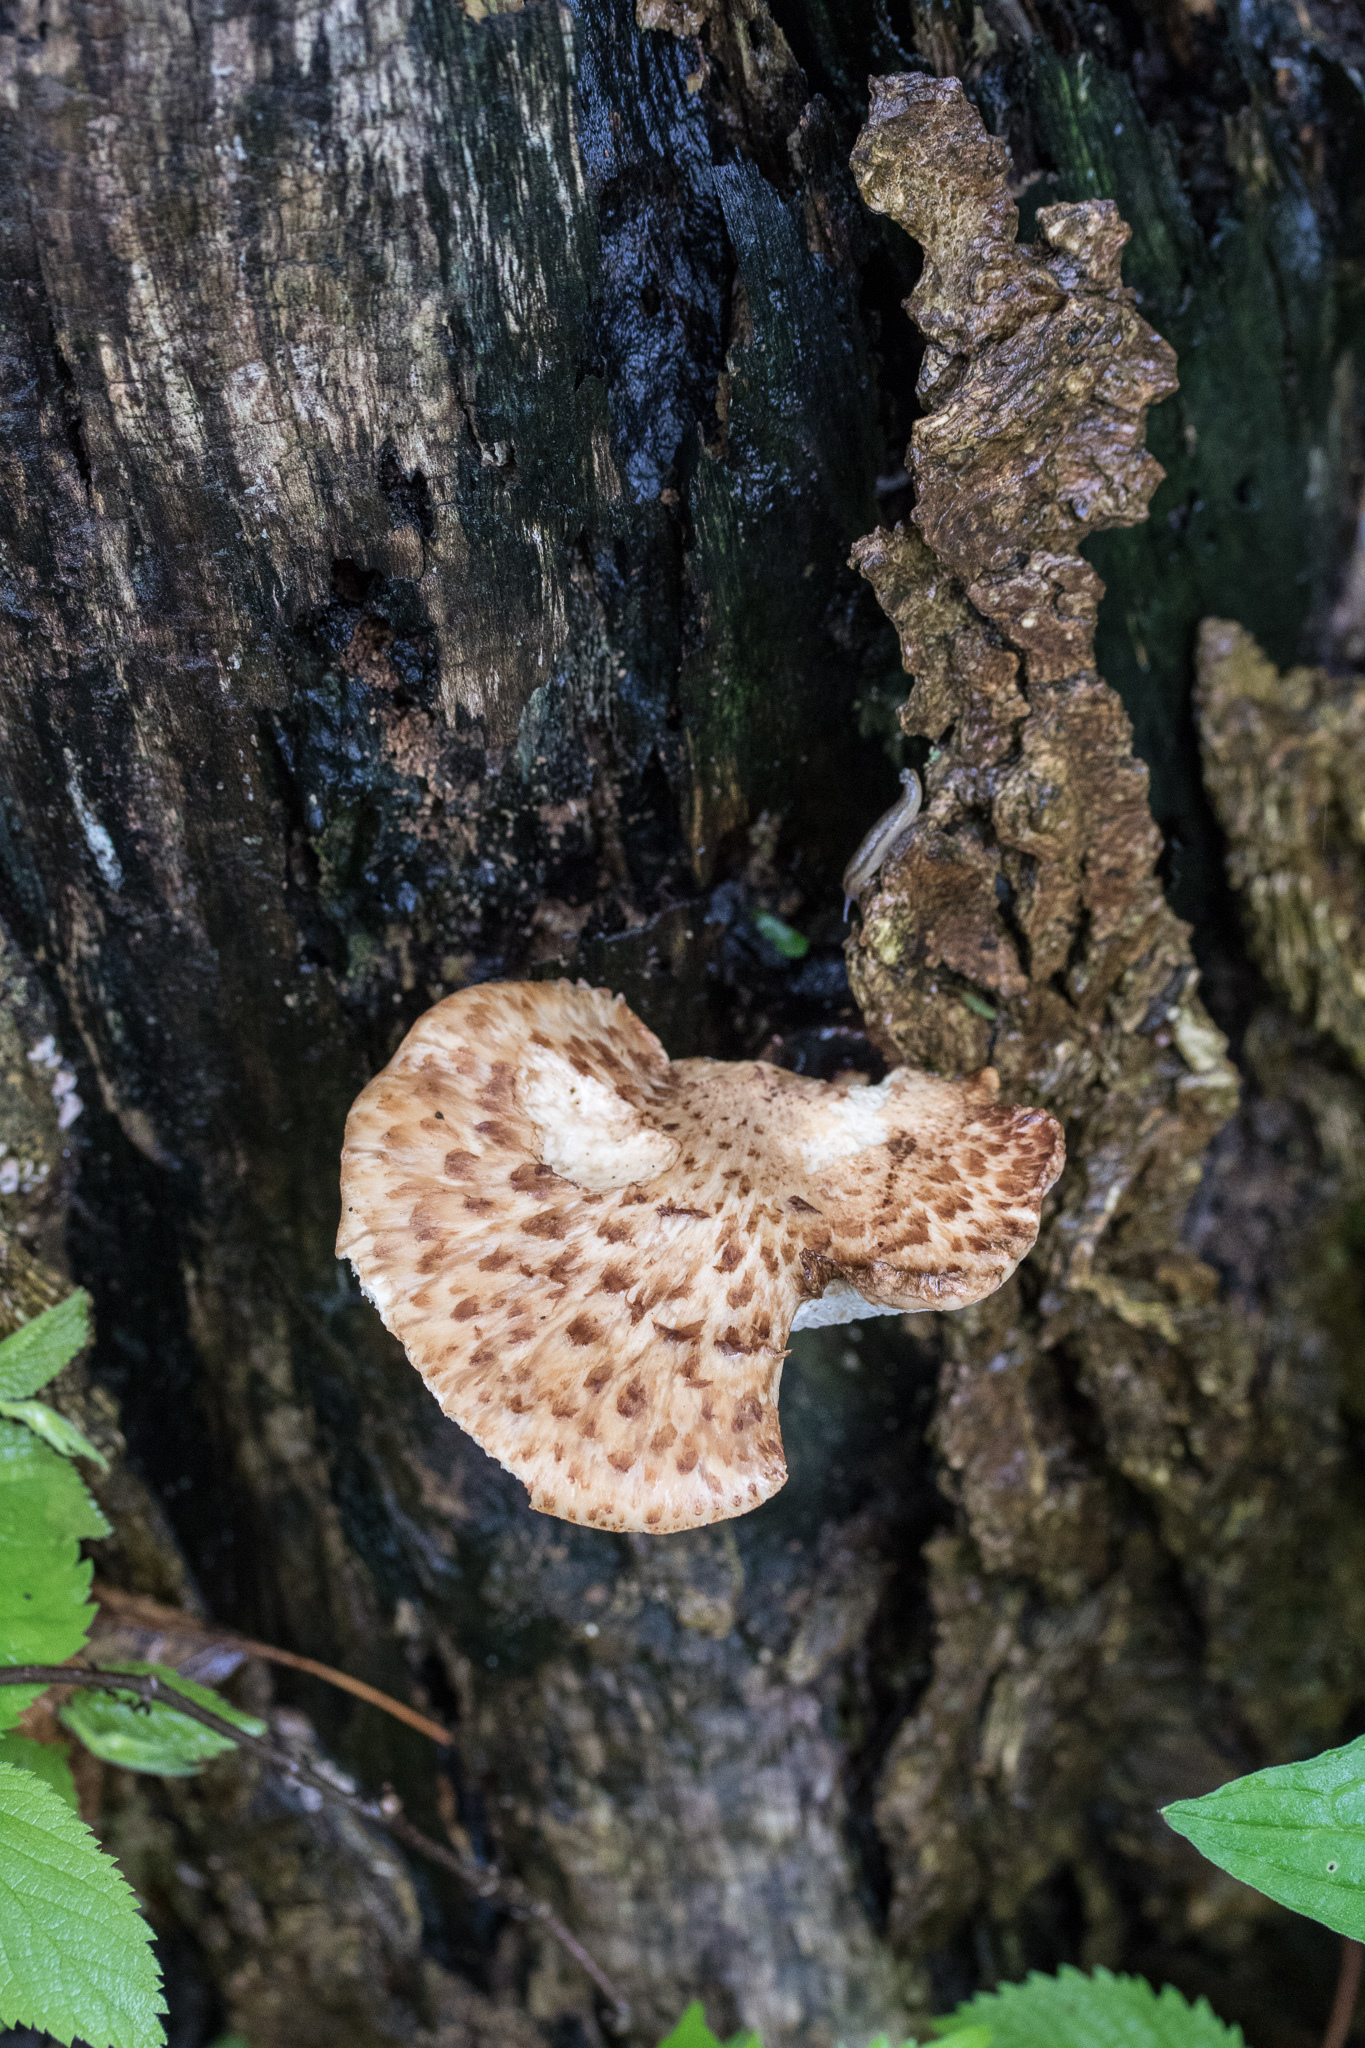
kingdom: Fungi
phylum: Basidiomycota
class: Agaricomycetes
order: Polyporales
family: Polyporaceae
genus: Cerioporus
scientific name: Cerioporus squamosus
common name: Dryad's saddle
